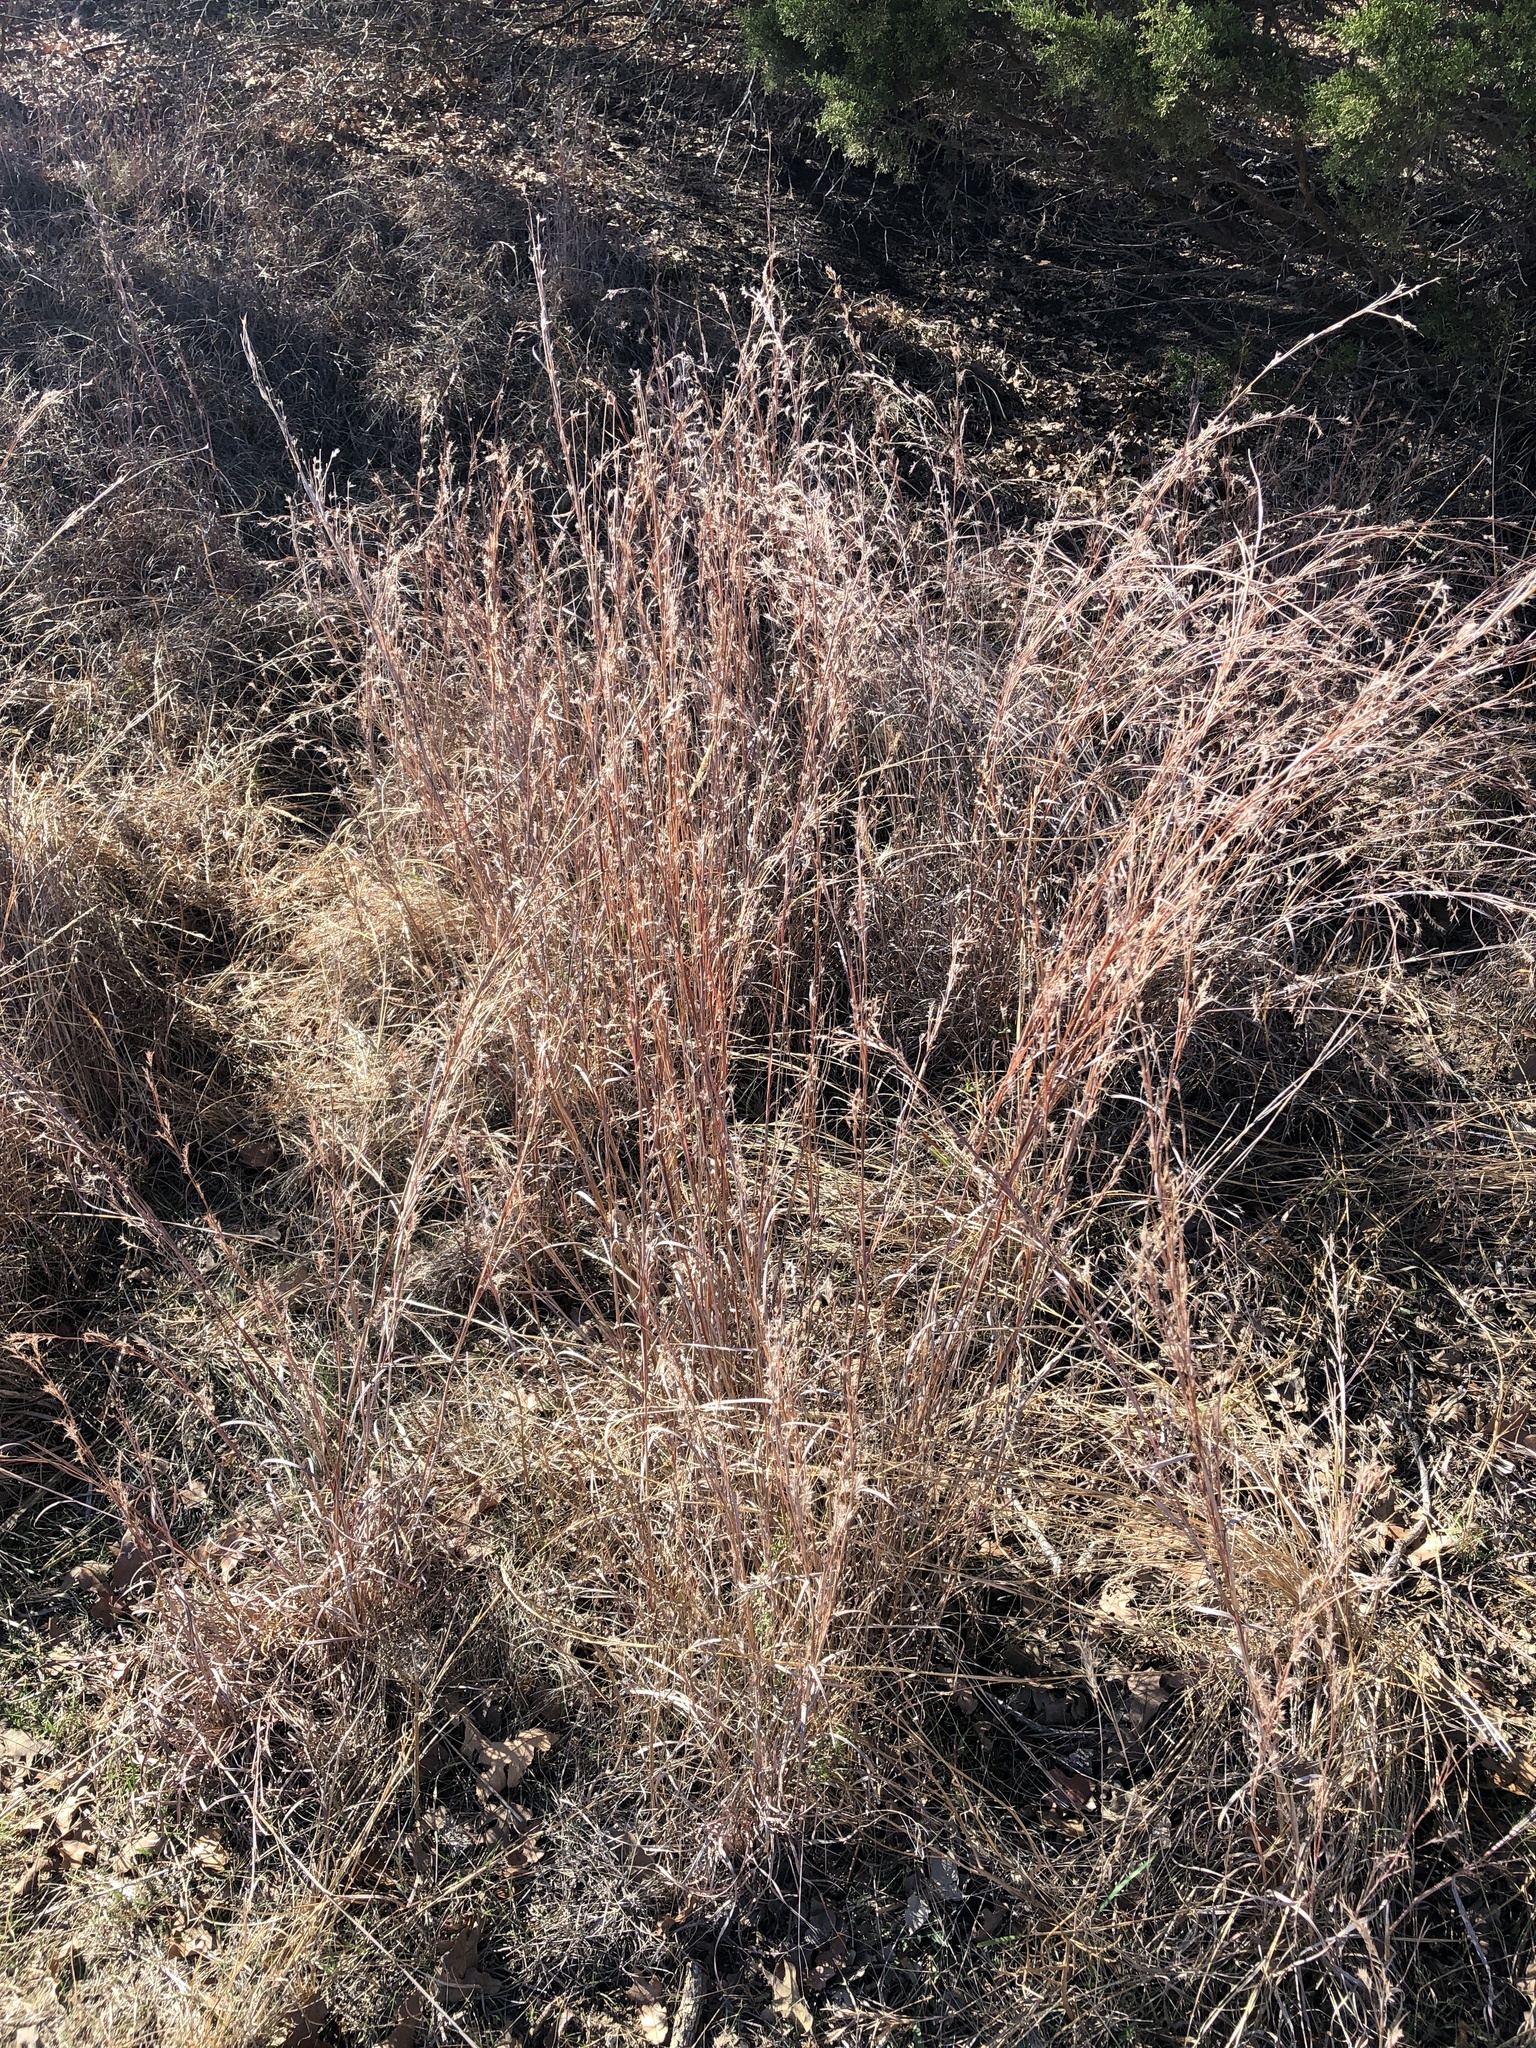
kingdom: Plantae
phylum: Tracheophyta
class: Liliopsida
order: Poales
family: Poaceae
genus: Schizachyrium
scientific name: Schizachyrium scoparium
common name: Little bluestem
